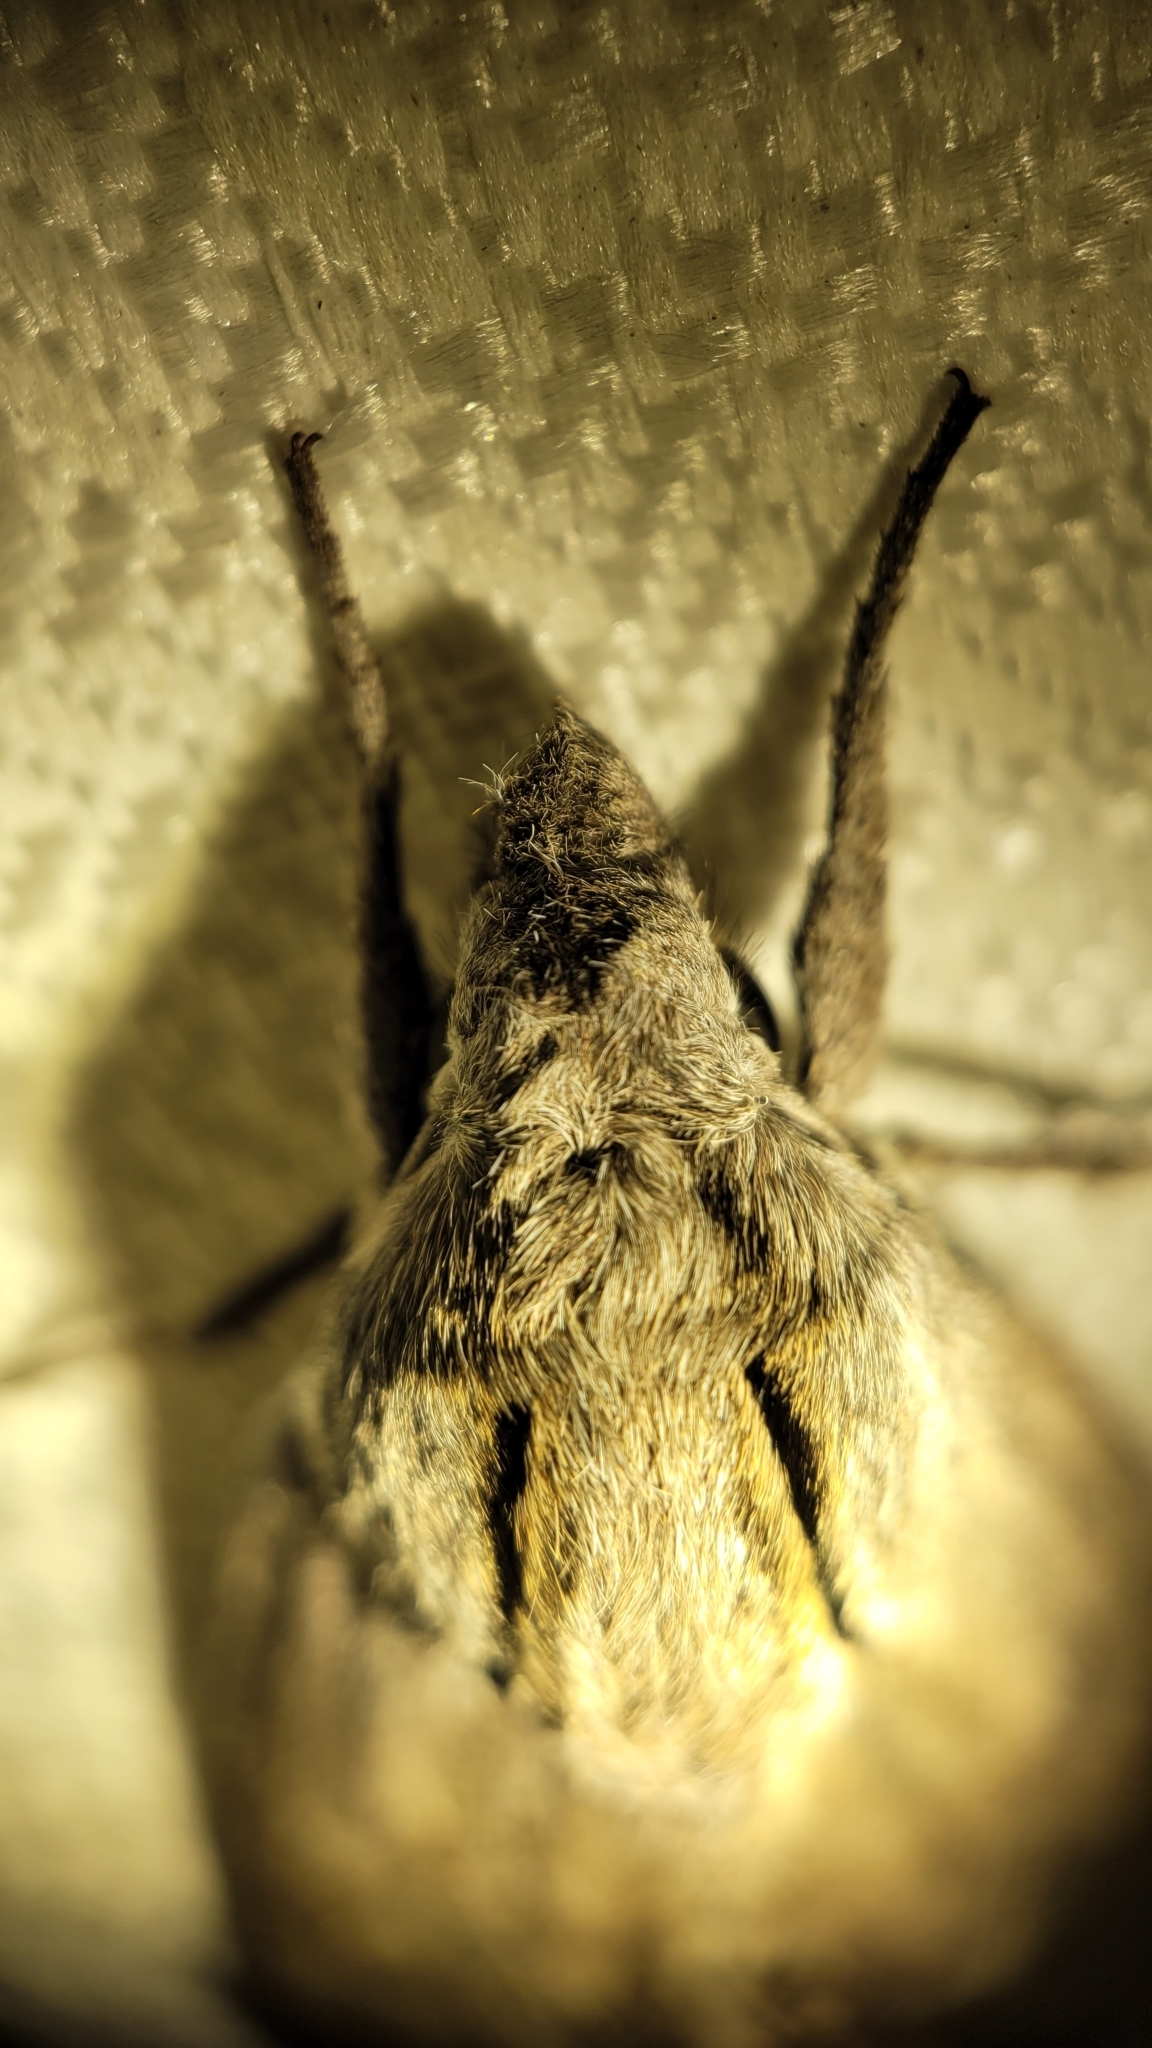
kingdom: Animalia
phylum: Arthropoda
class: Insecta
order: Lepidoptera
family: Sphingidae
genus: Sphinx
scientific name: Sphinx chersis
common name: Great ash sphinx
